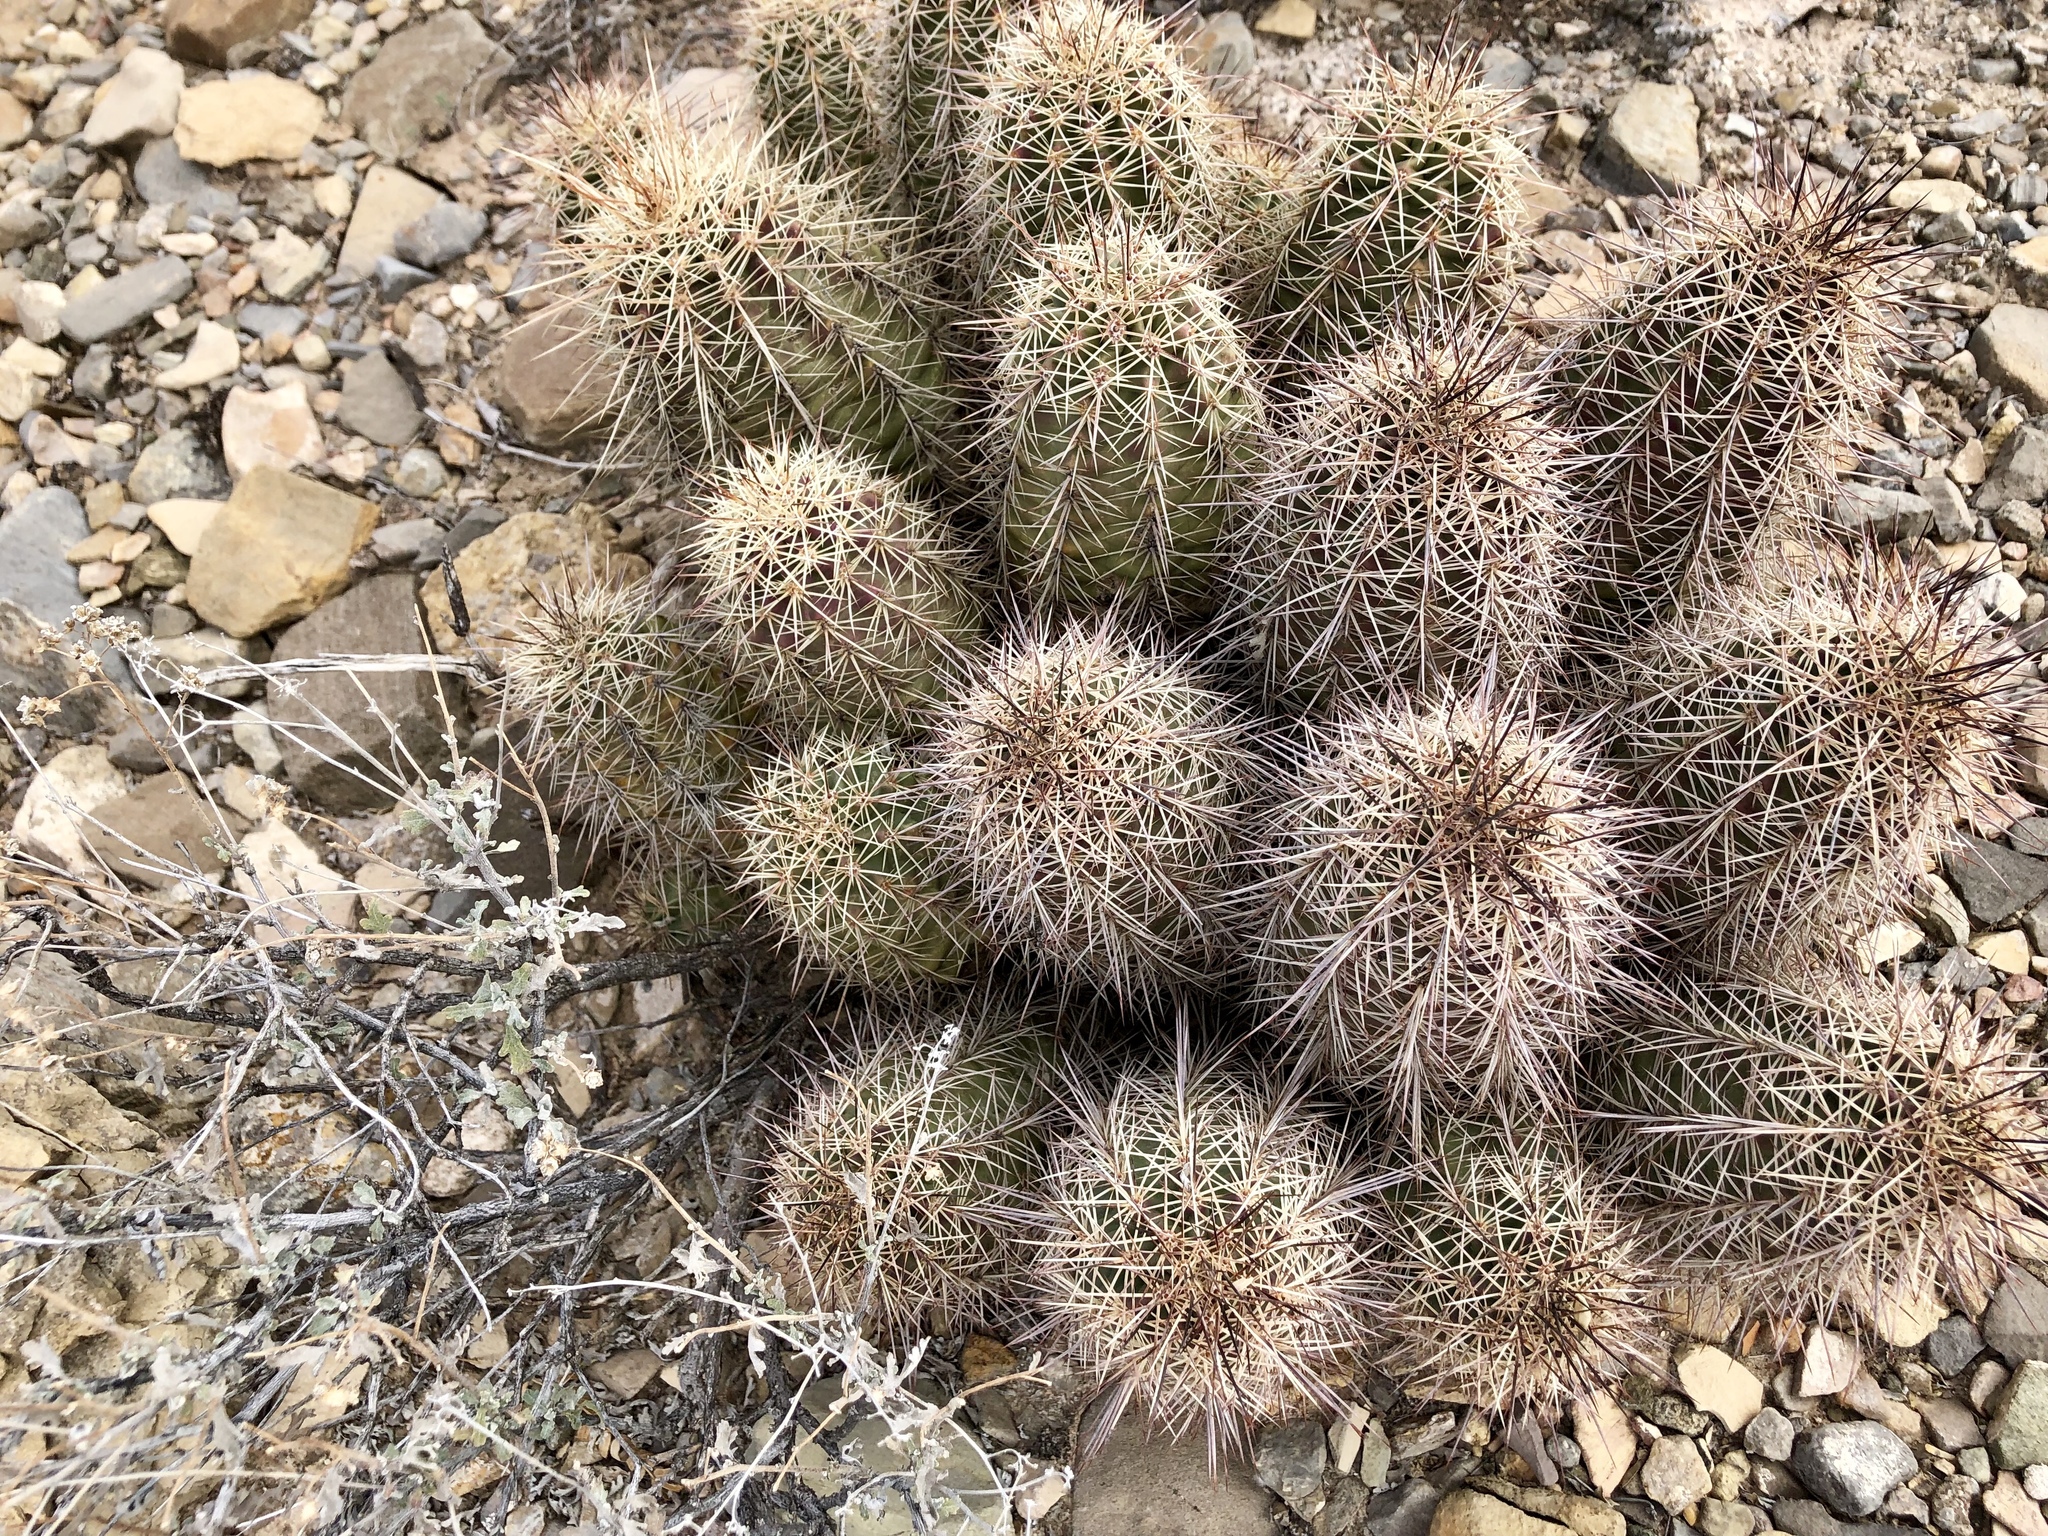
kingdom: Plantae
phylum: Tracheophyta
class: Magnoliopsida
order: Caryophyllales
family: Cactaceae
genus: Echinocereus
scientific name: Echinocereus coccineus
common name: Scarlet hedgehog cactus
